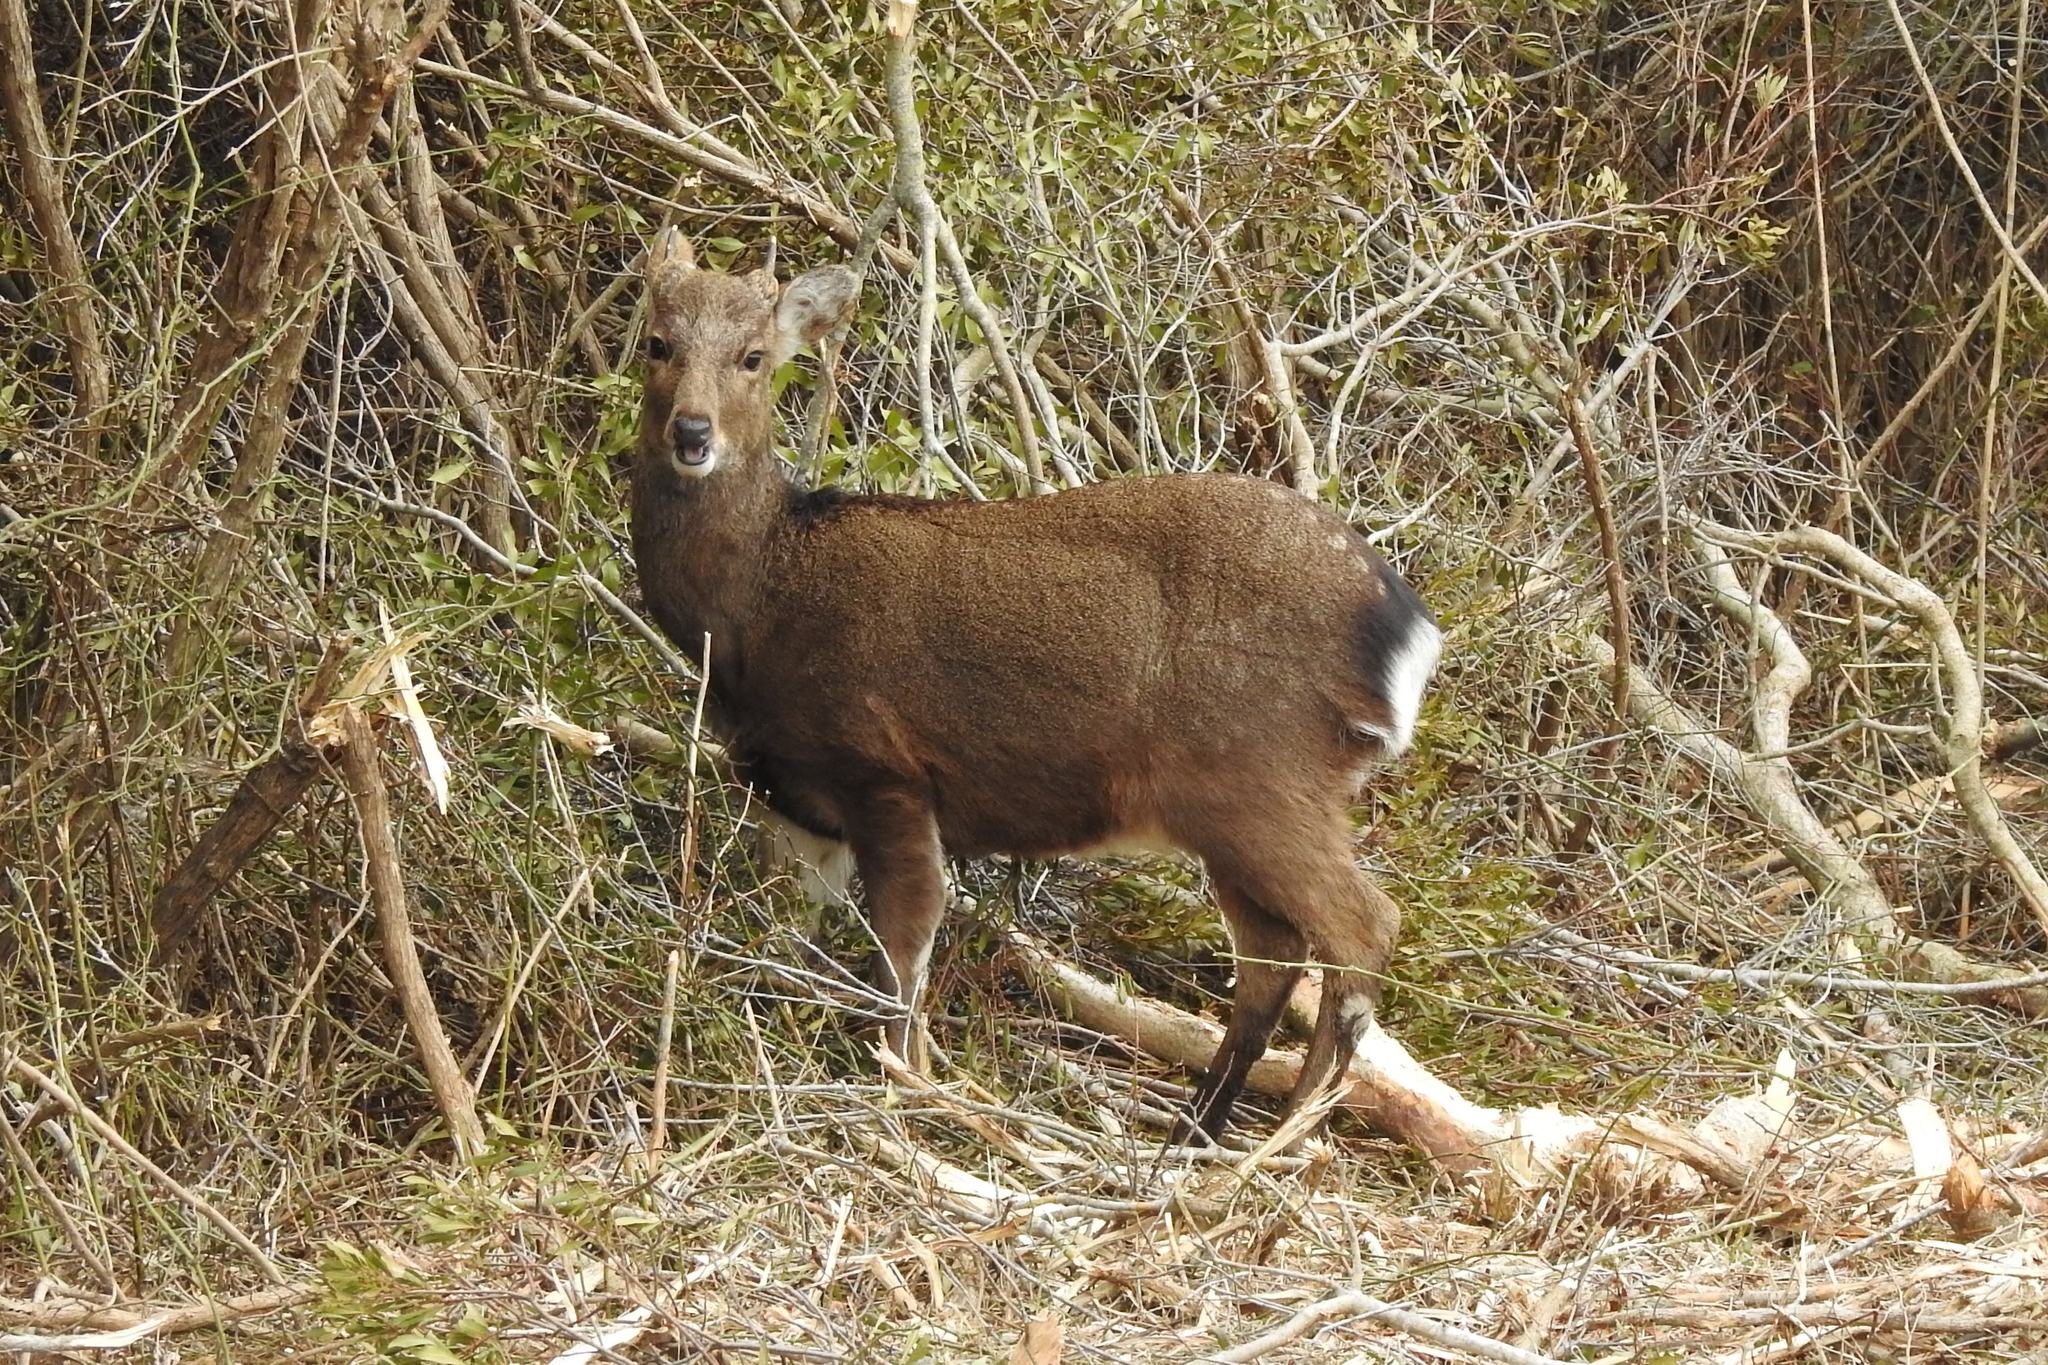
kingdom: Animalia
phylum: Chordata
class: Mammalia
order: Artiodactyla
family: Cervidae
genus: Cervus
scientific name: Cervus nippon
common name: Sika deer
